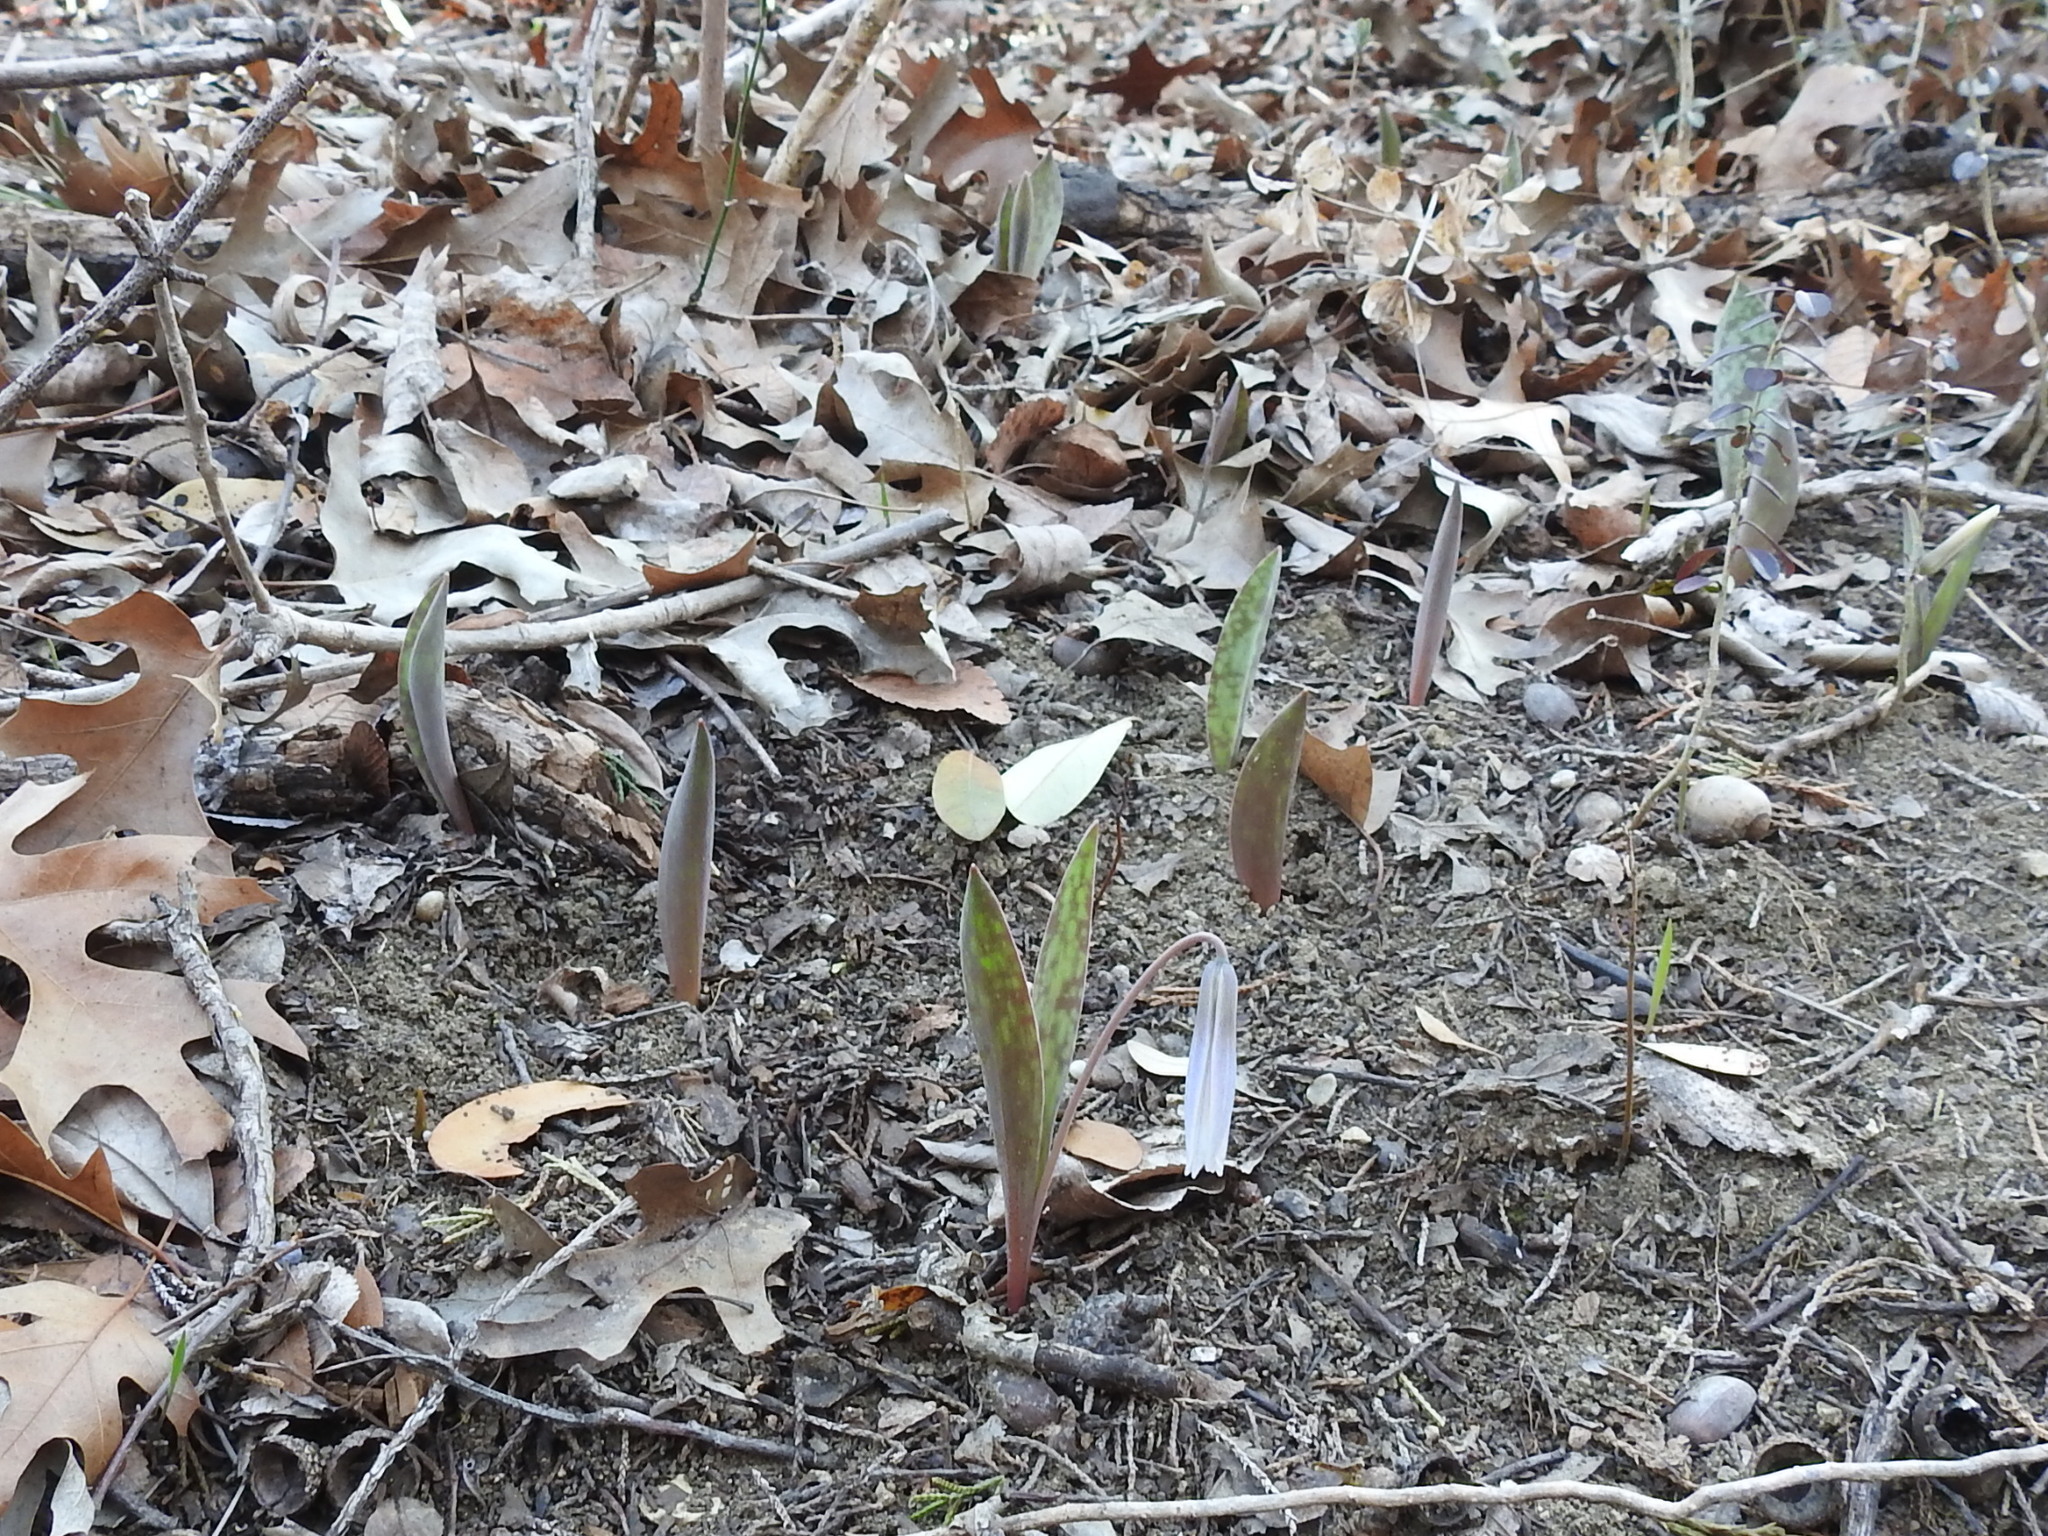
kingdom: Plantae
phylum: Tracheophyta
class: Liliopsida
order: Liliales
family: Liliaceae
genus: Erythronium
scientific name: Erythronium albidum
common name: White trout-lily
